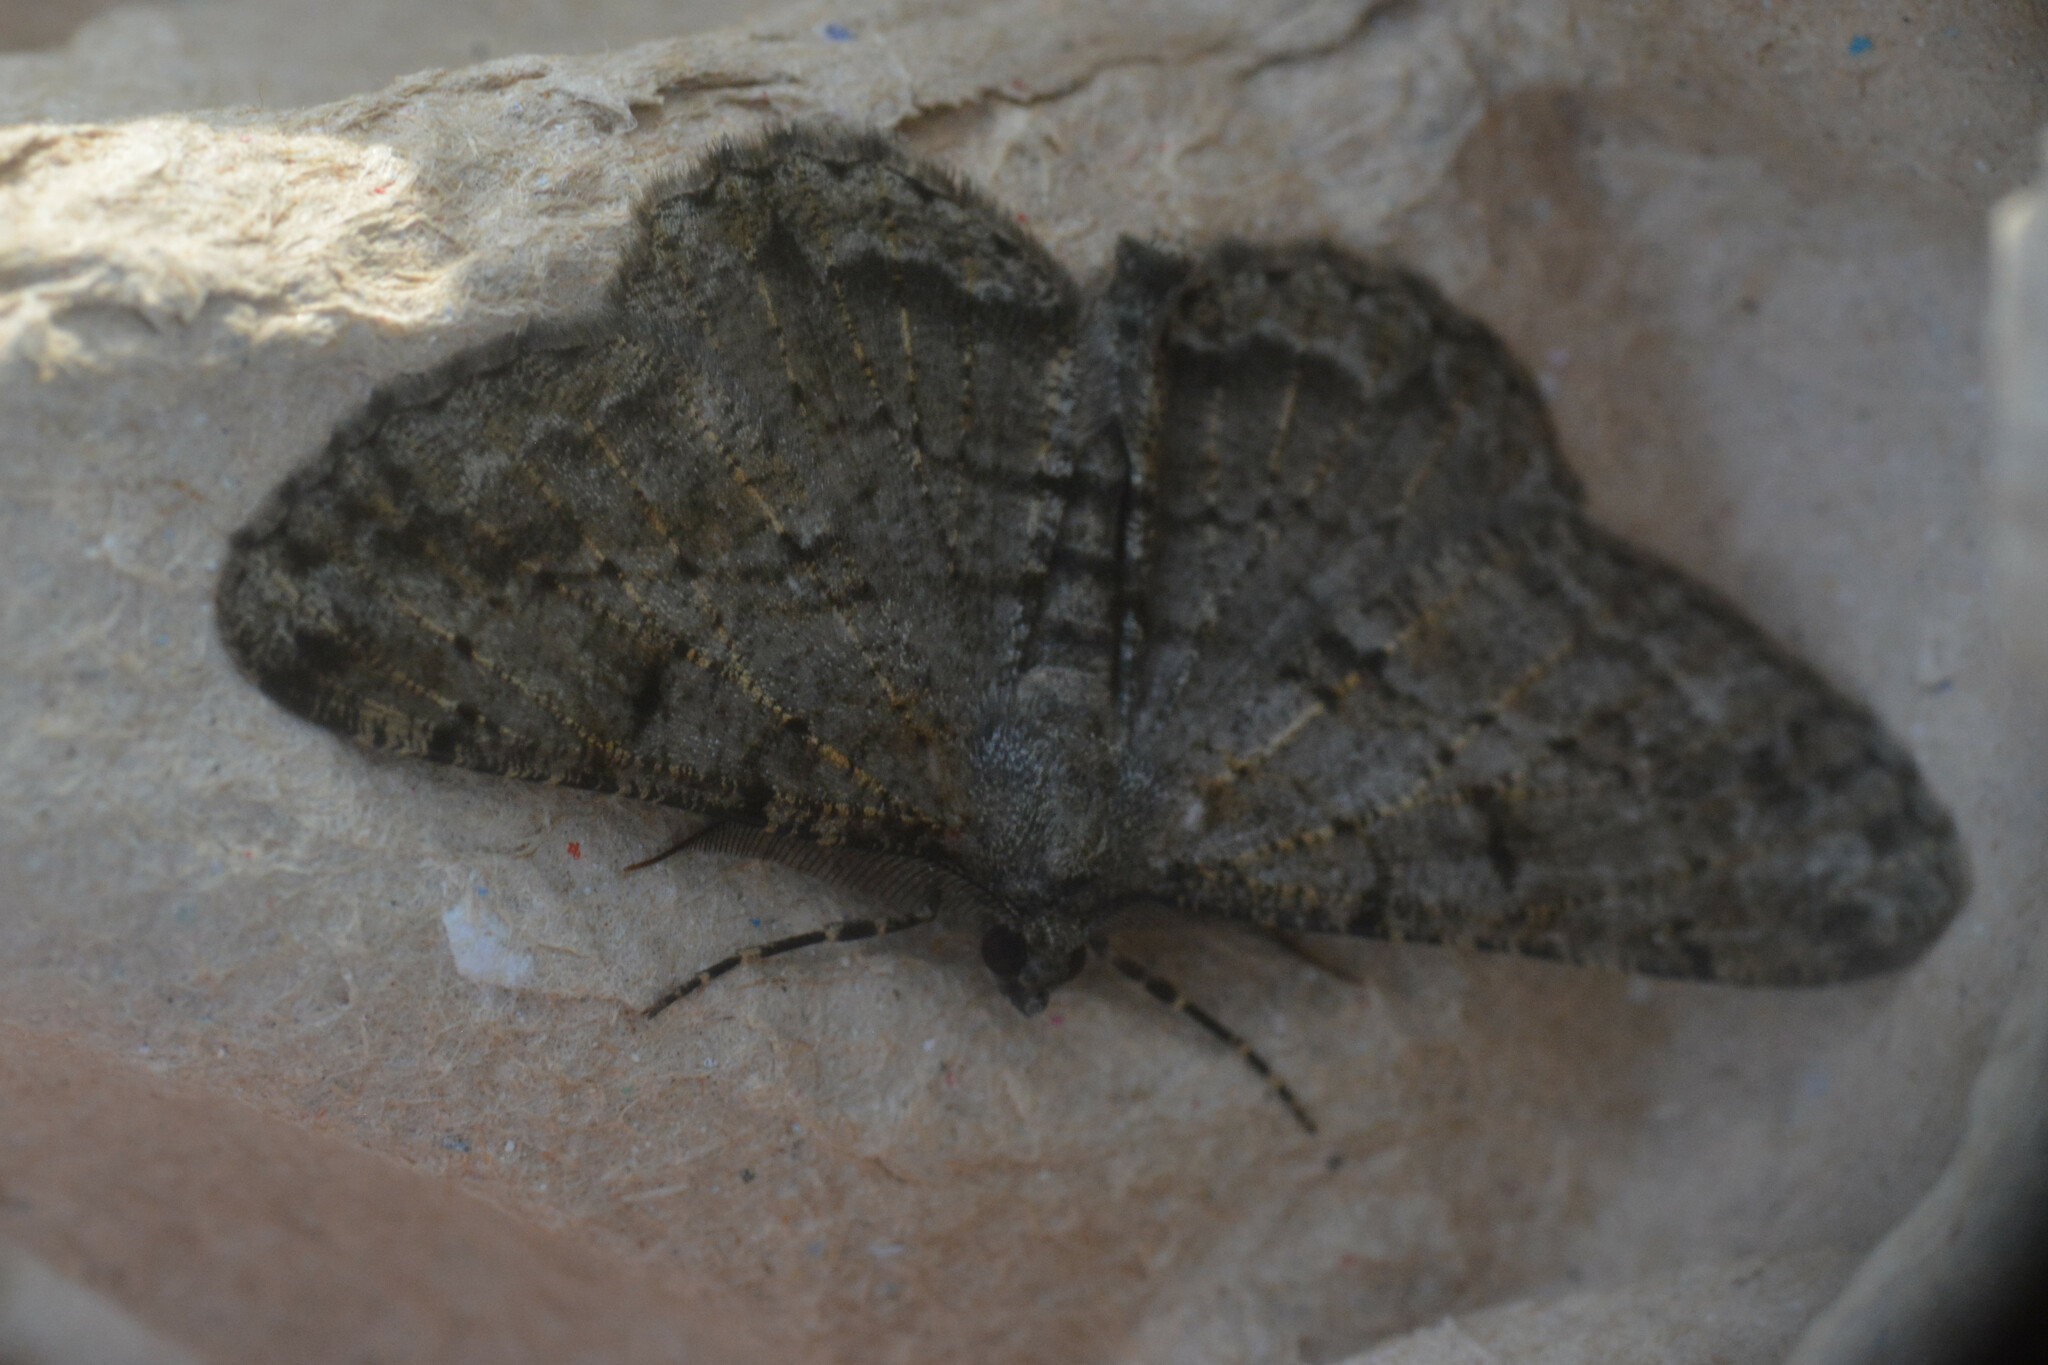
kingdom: Animalia
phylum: Arthropoda
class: Insecta
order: Lepidoptera
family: Geometridae
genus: Peribatodes
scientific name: Peribatodes rhomboidaria
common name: Willow beauty
